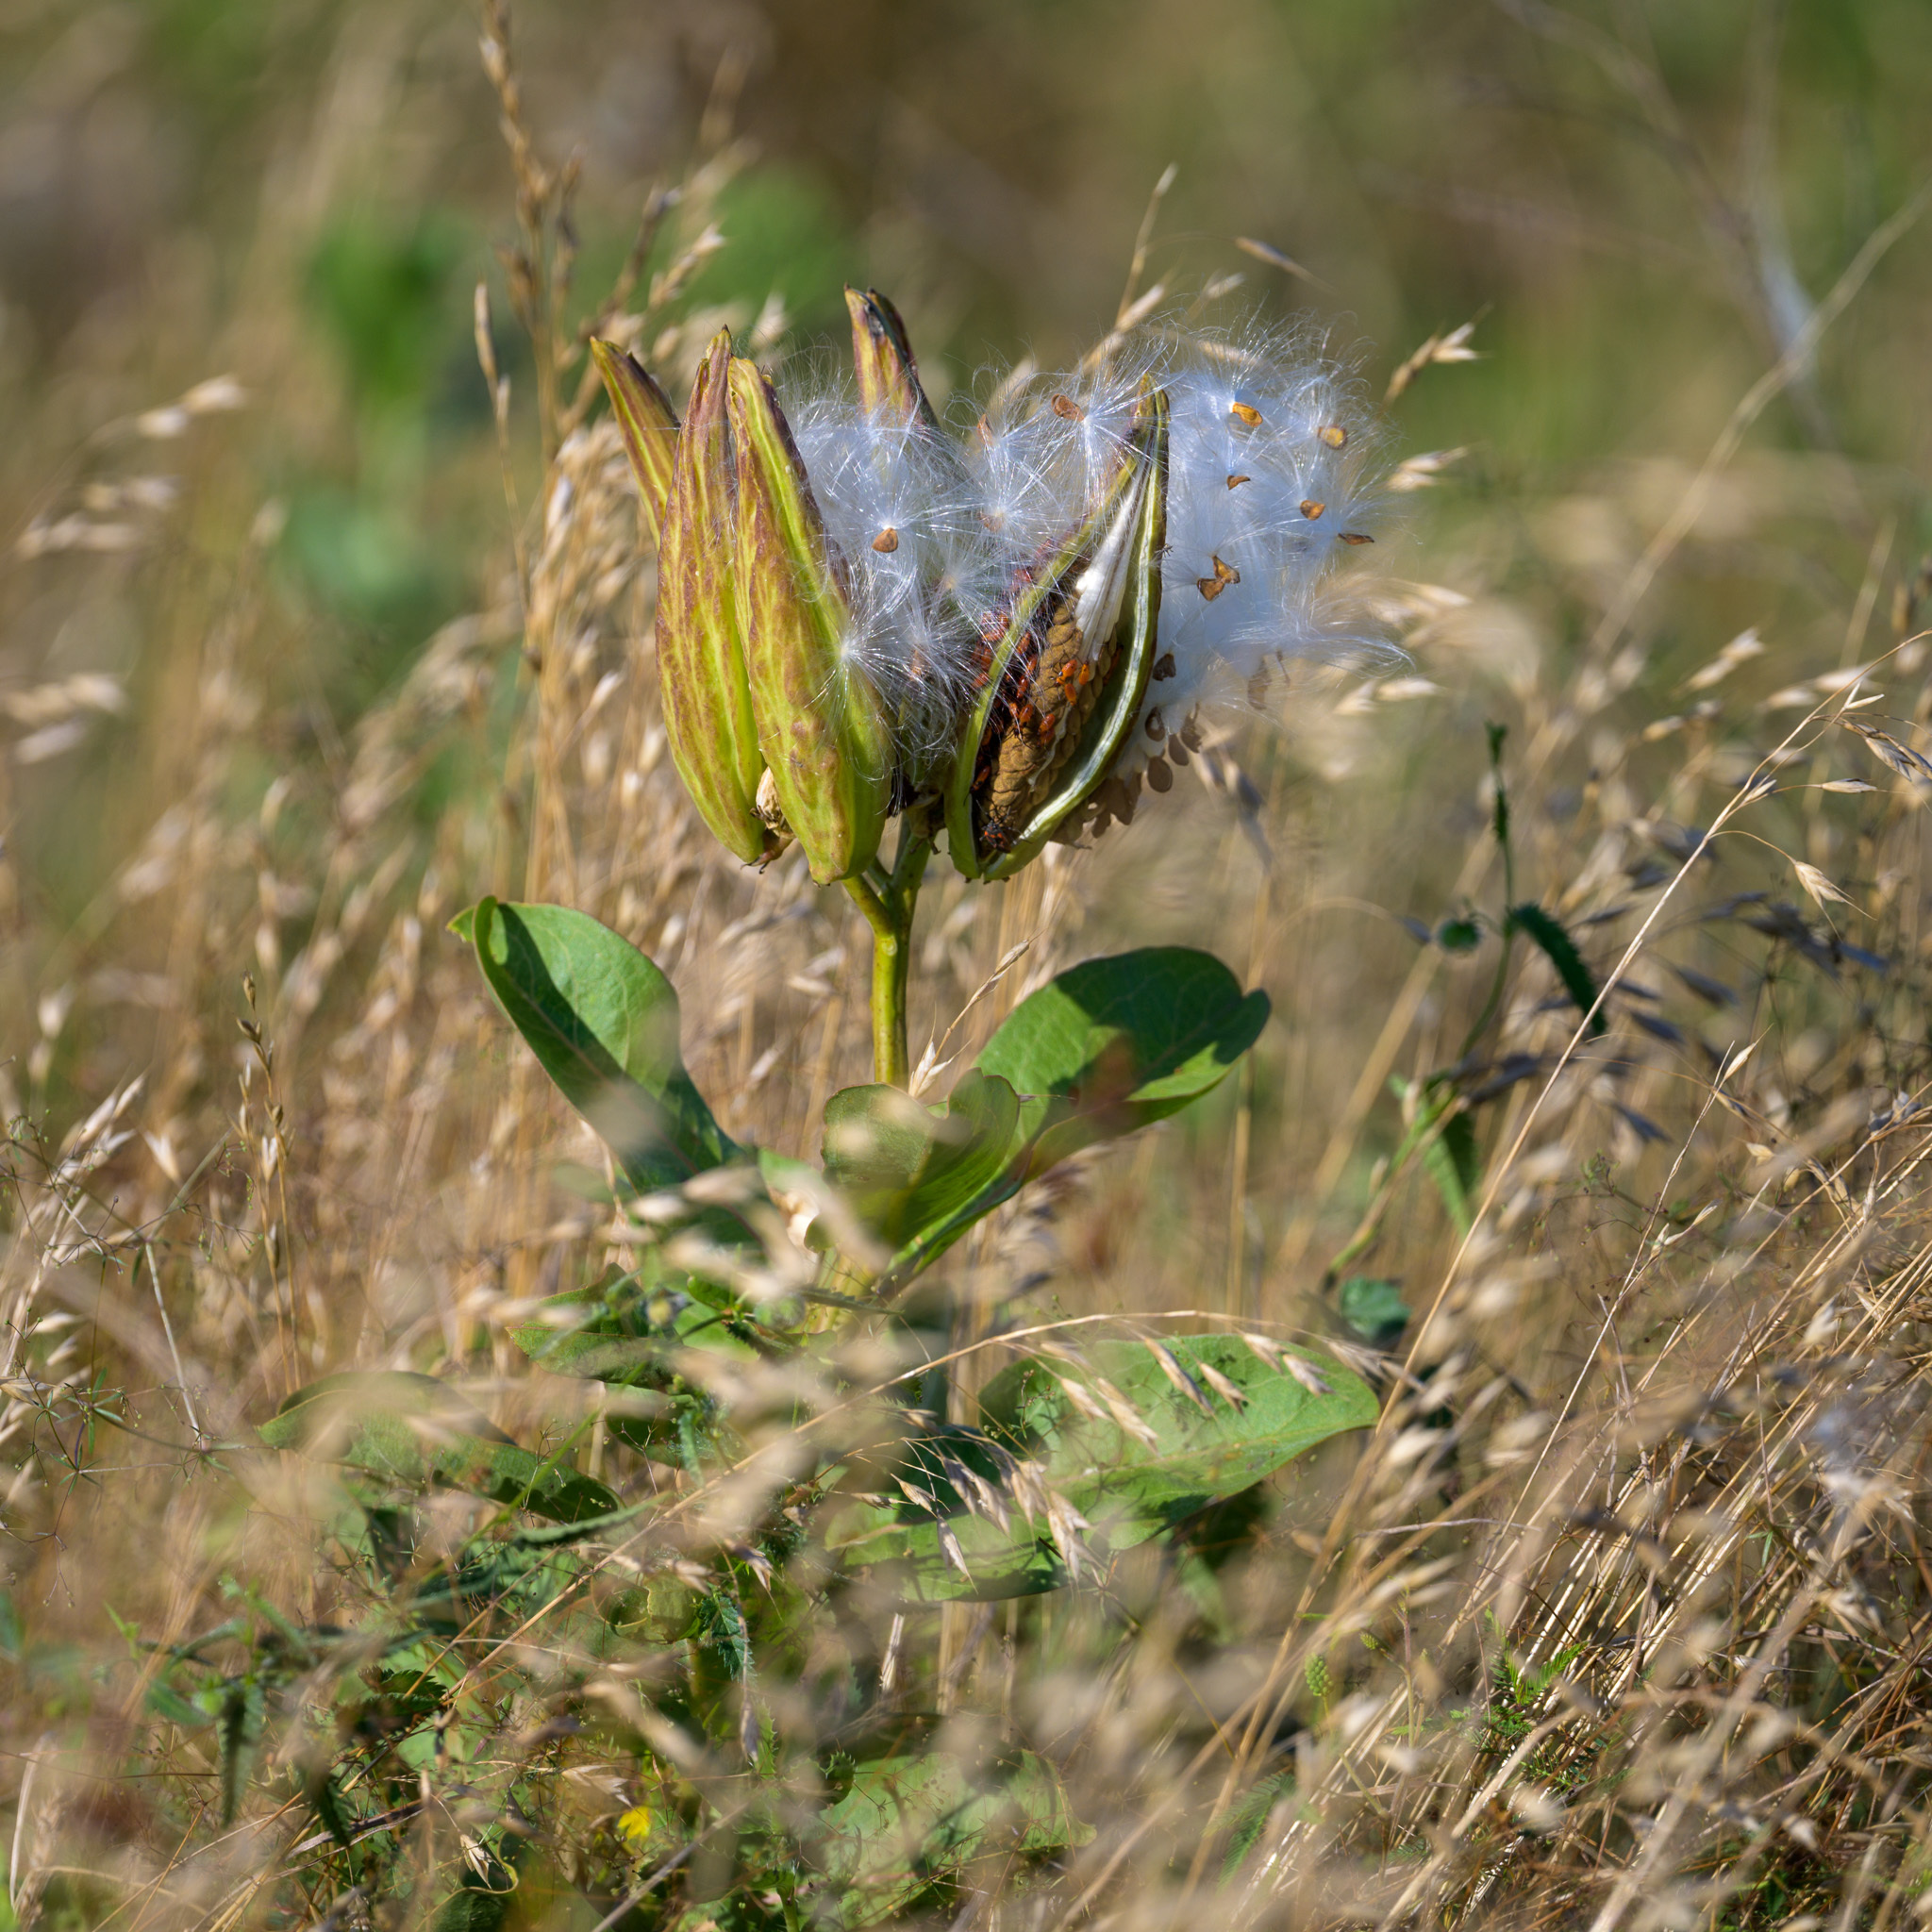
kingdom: Plantae
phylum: Tracheophyta
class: Magnoliopsida
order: Gentianales
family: Apocynaceae
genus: Asclepias
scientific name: Asclepias viridis
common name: Antelope-horns
